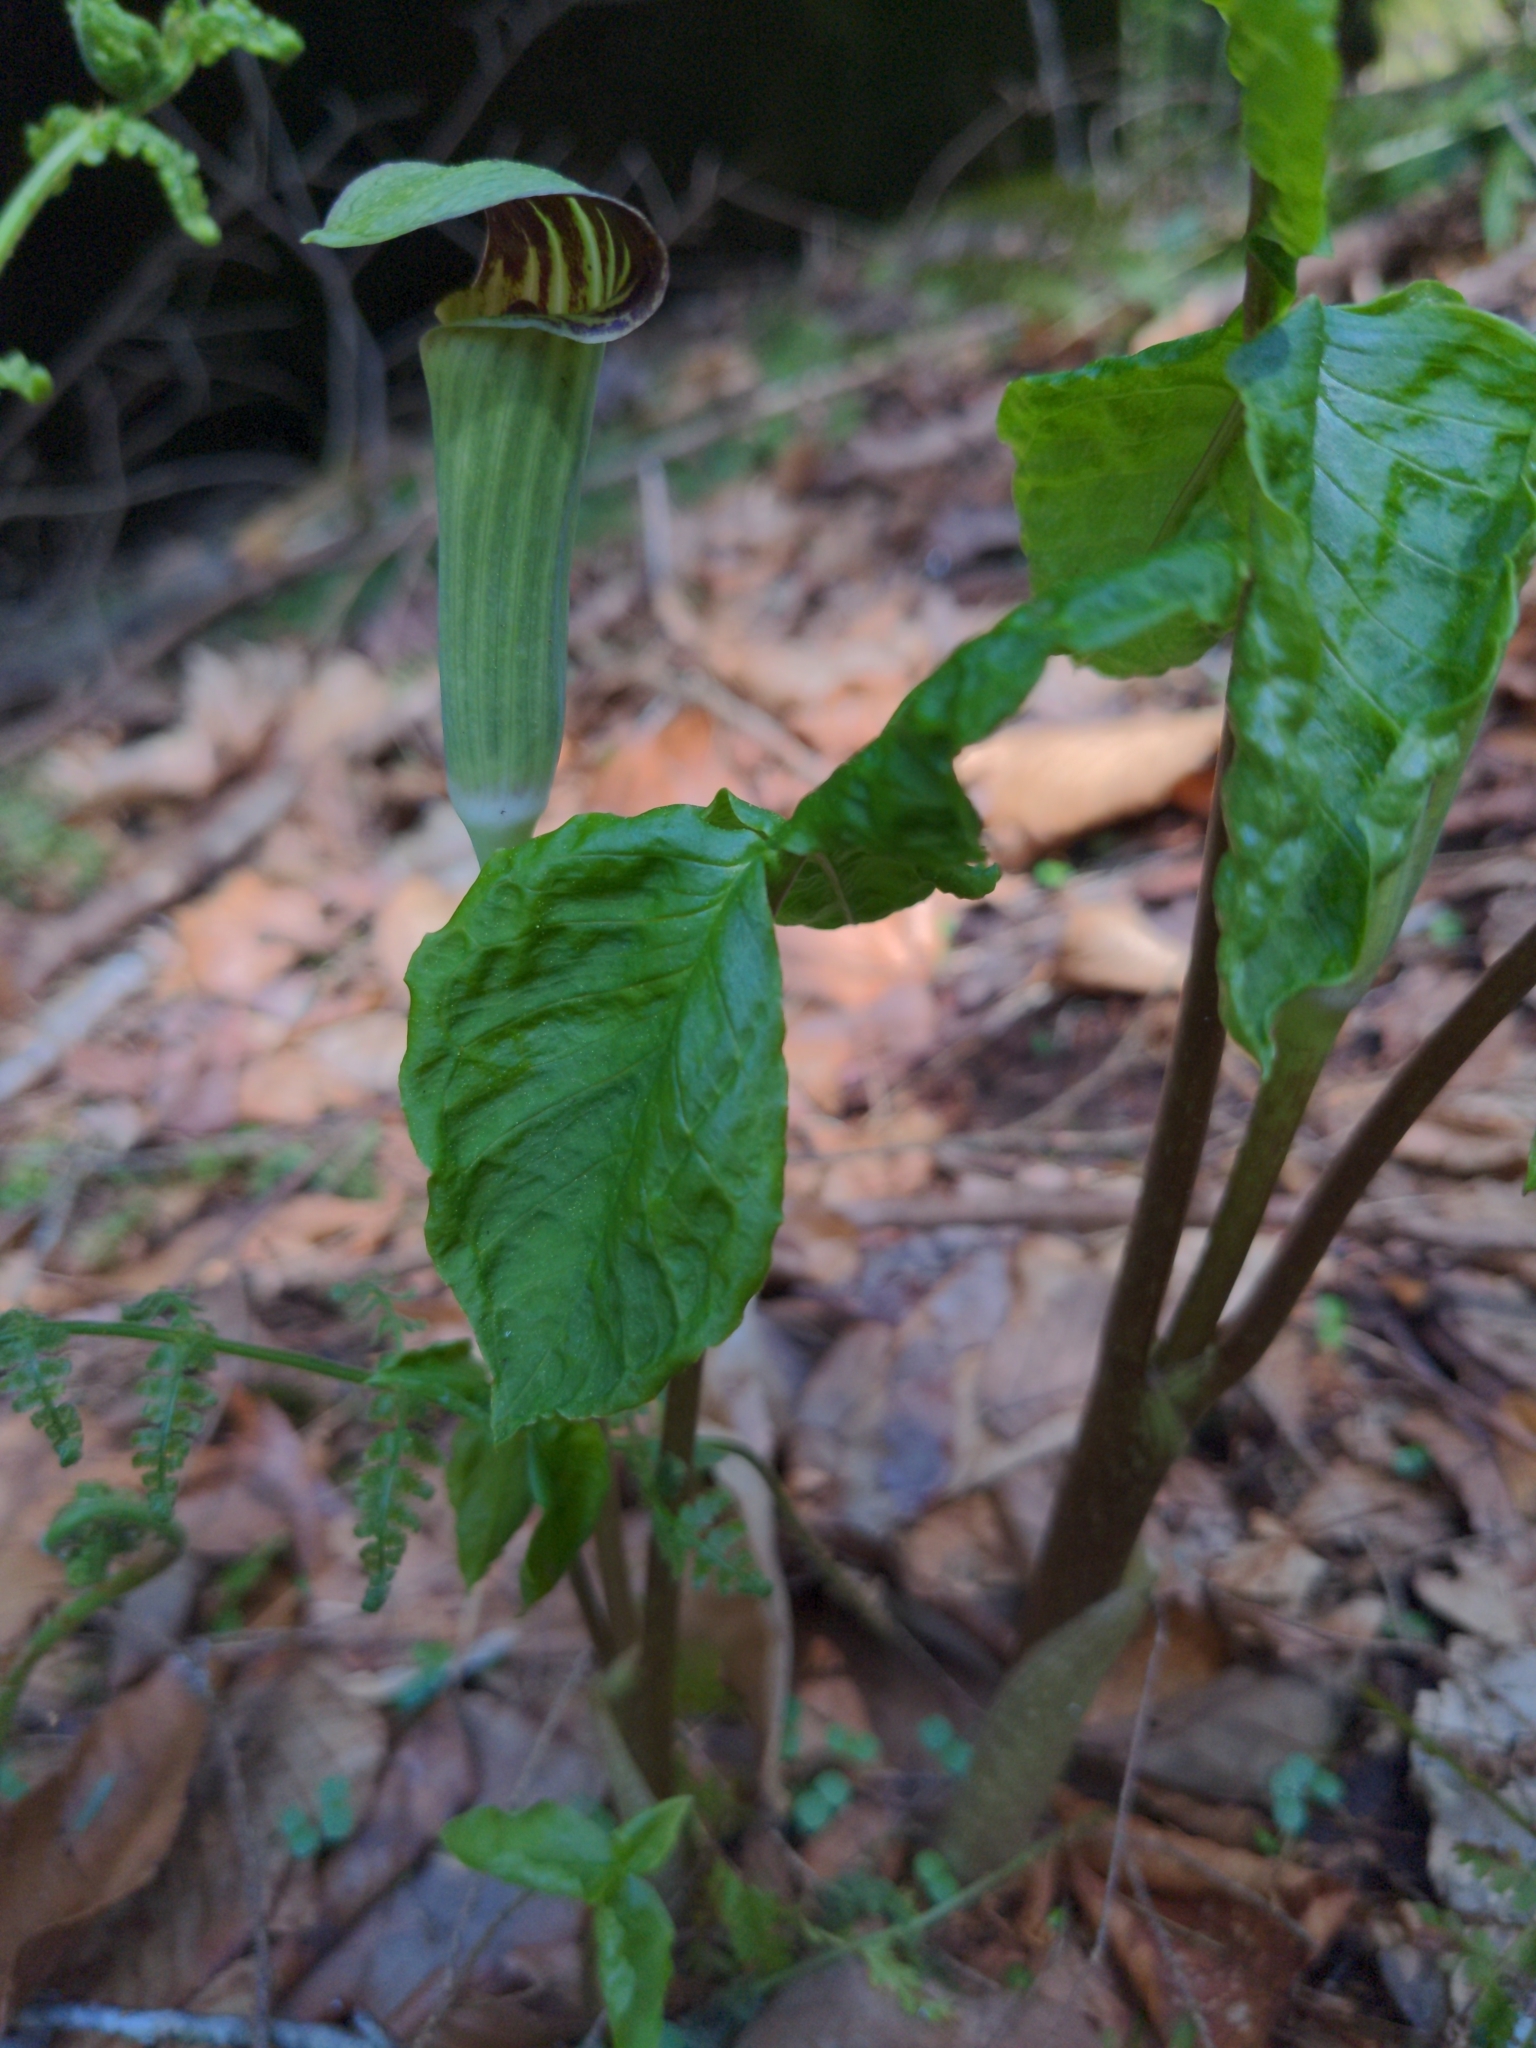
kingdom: Plantae
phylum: Tracheophyta
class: Liliopsida
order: Alismatales
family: Araceae
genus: Arisaema
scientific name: Arisaema triphyllum
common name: Jack-in-the-pulpit
